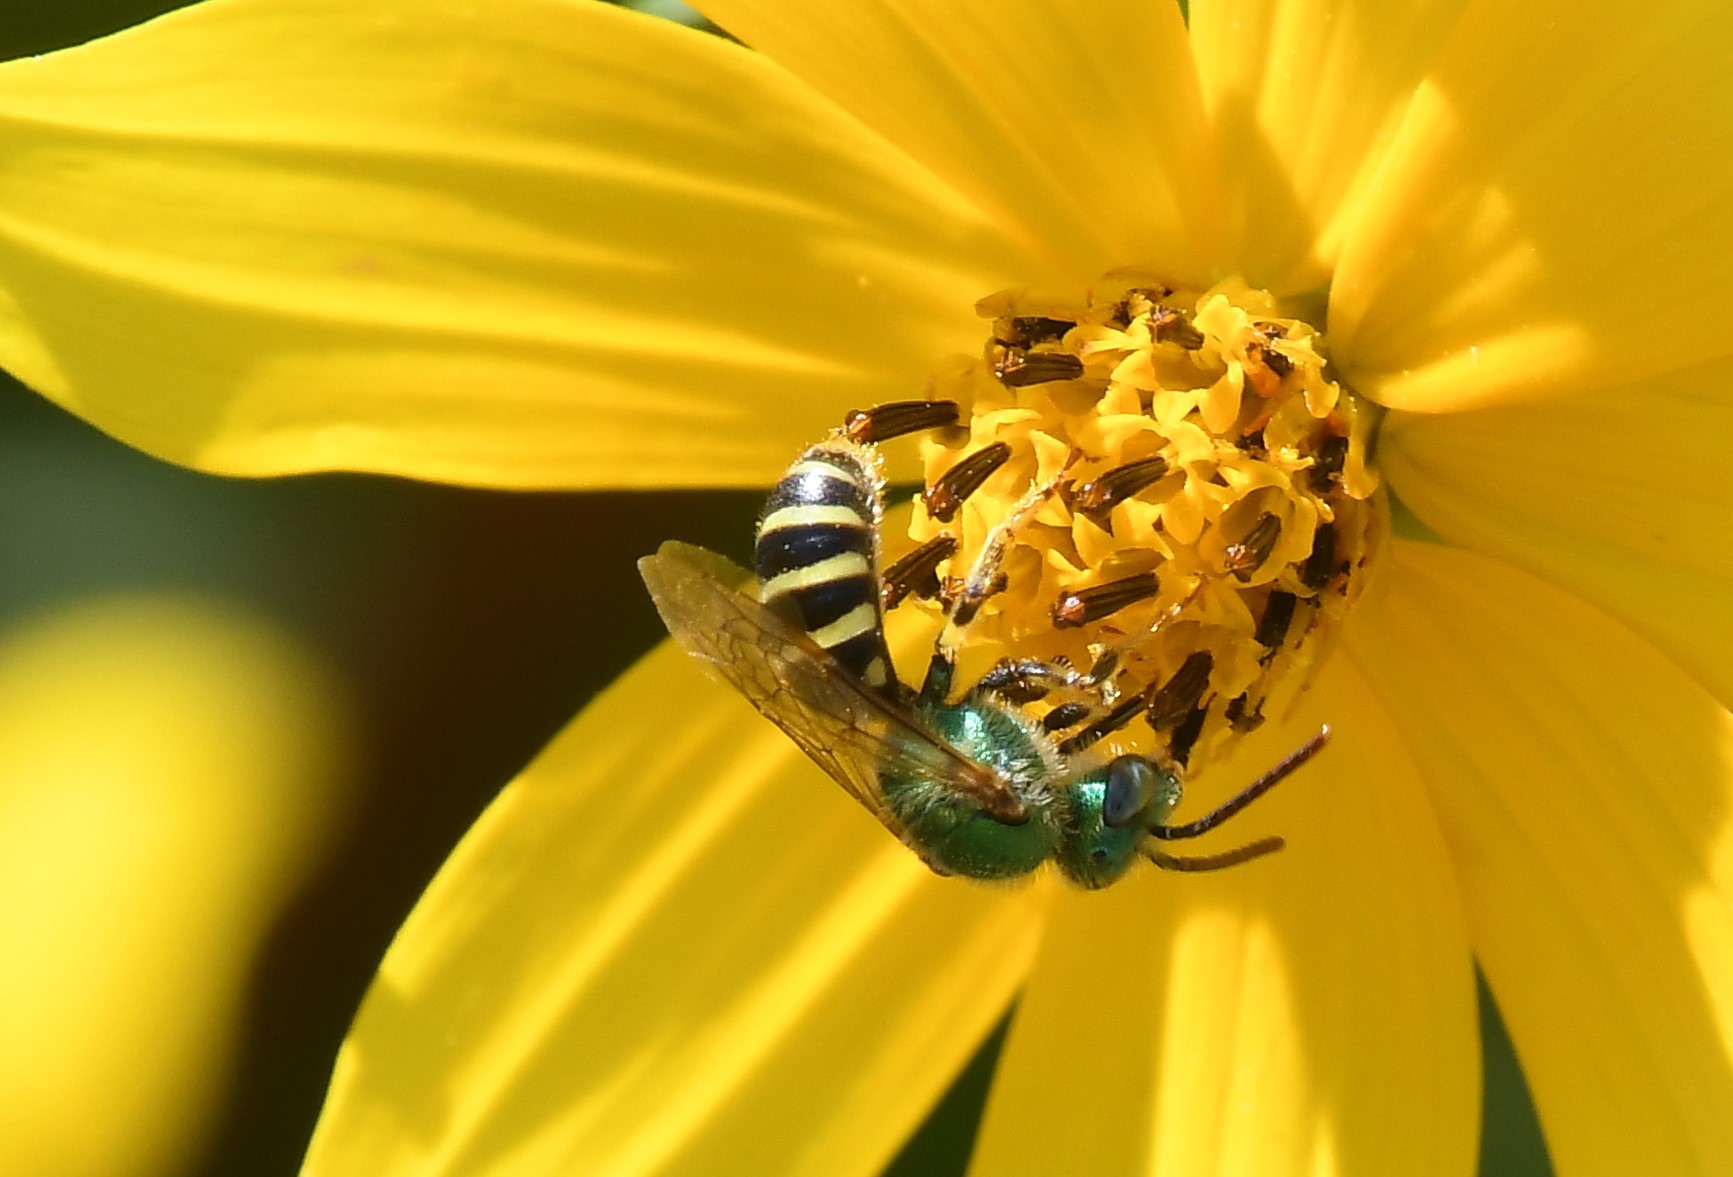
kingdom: Animalia
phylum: Arthropoda
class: Insecta
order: Hymenoptera
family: Halictidae
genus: Agapostemon
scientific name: Agapostemon
